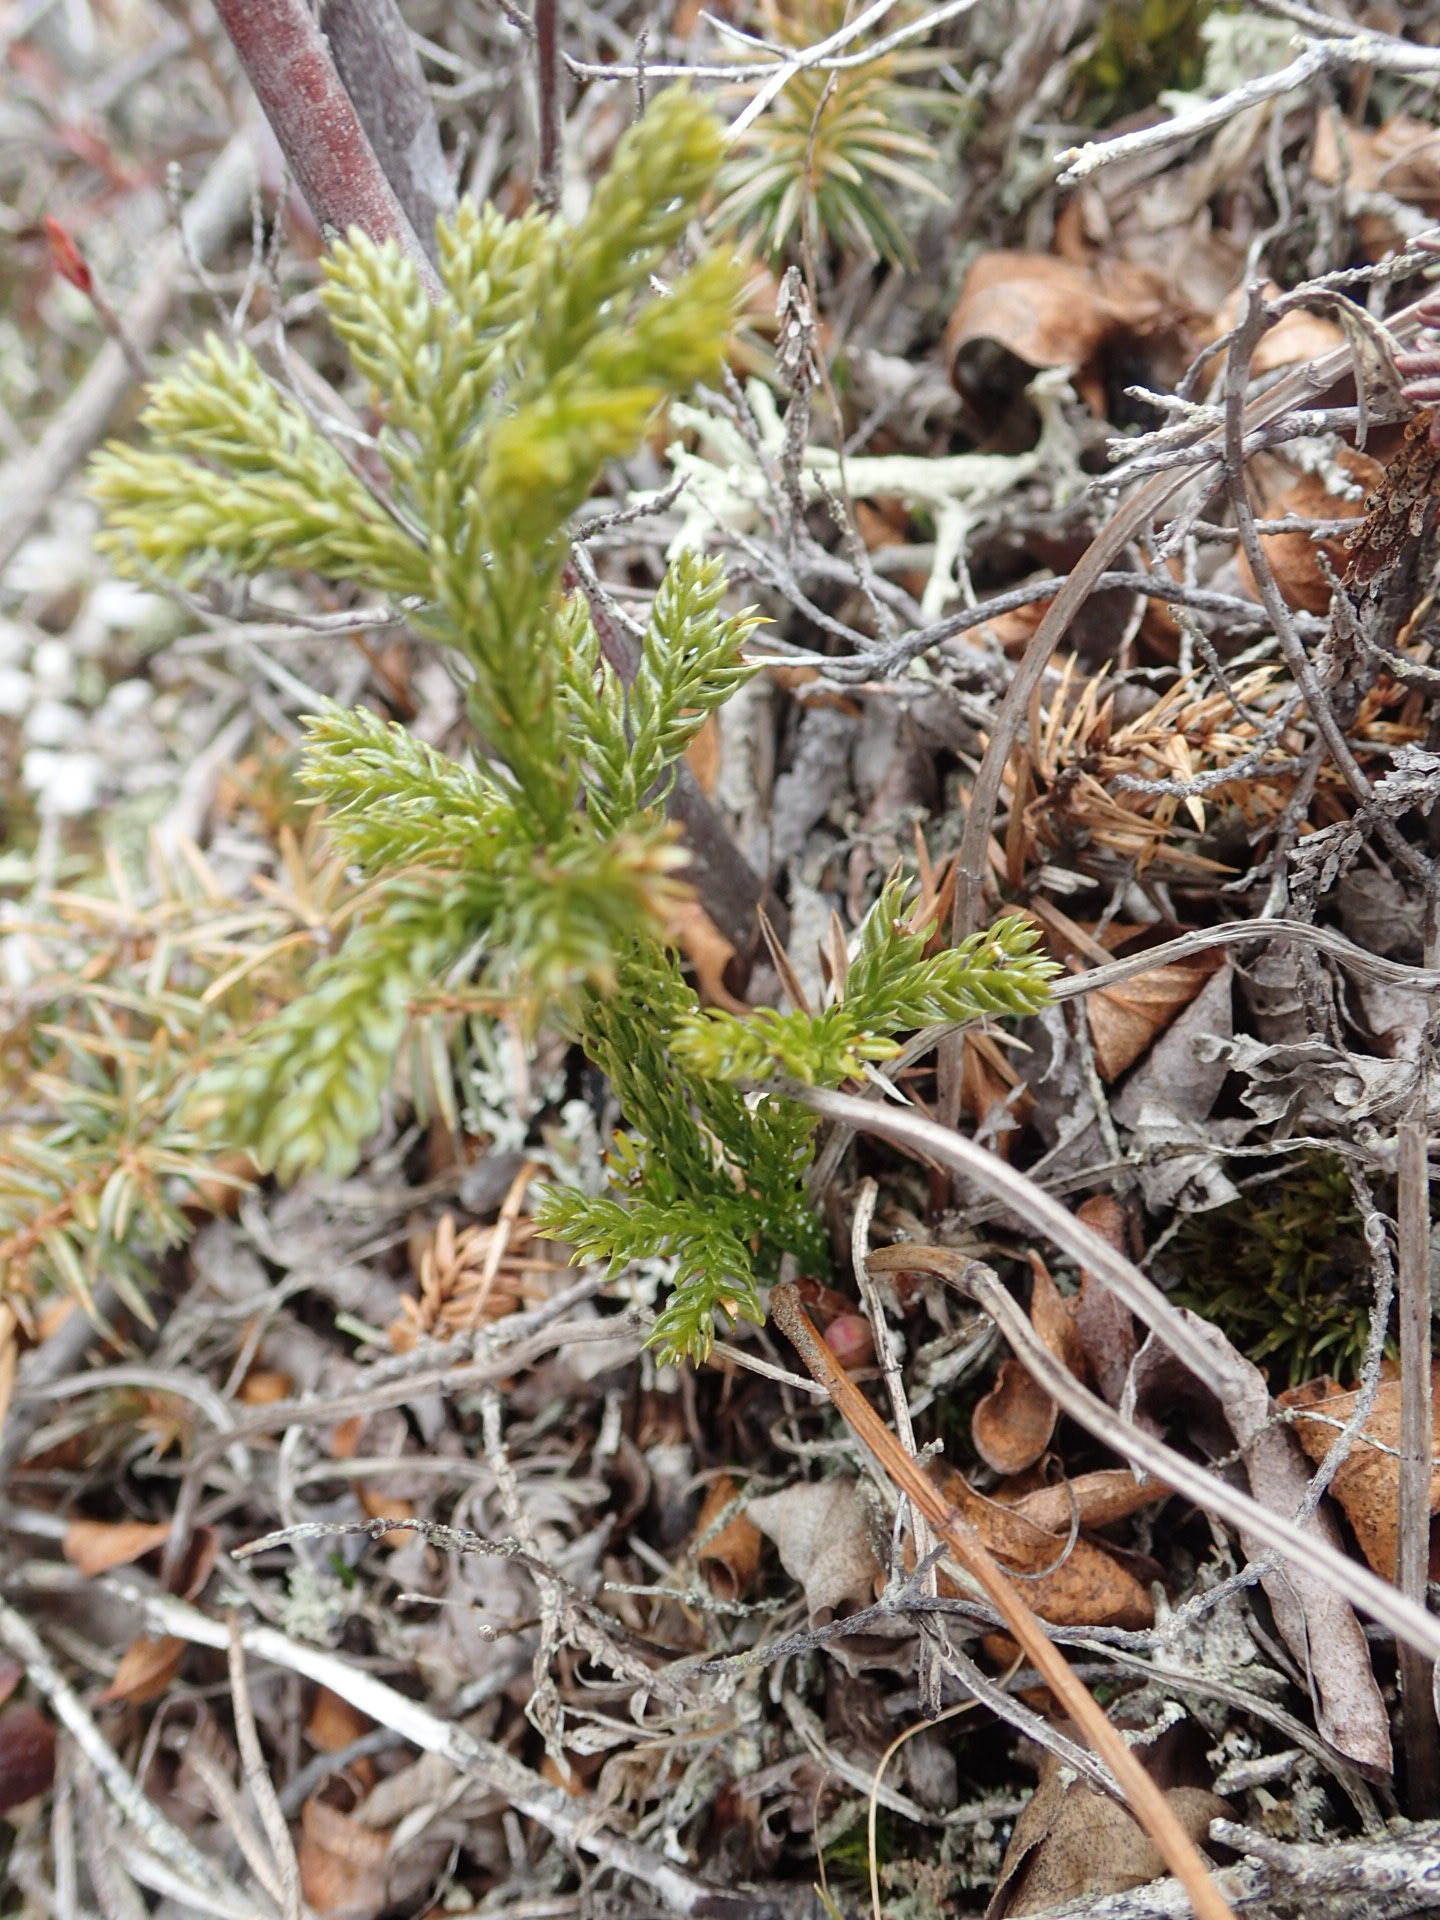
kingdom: Plantae
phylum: Tracheophyta
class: Lycopodiopsida
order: Lycopodiales
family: Lycopodiaceae
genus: Dendrolycopodium
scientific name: Dendrolycopodium hickeyi
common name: Hickey's clubmoss
